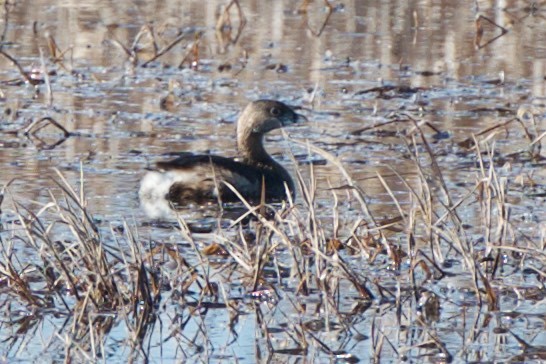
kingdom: Animalia
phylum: Chordata
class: Aves
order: Podicipediformes
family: Podicipedidae
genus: Podilymbus
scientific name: Podilymbus podiceps
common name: Pied-billed grebe
